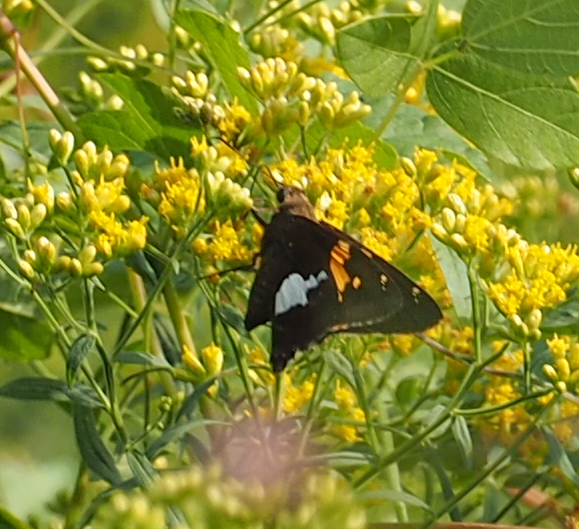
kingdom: Animalia
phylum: Arthropoda
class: Insecta
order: Lepidoptera
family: Hesperiidae
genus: Epargyreus
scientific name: Epargyreus clarus
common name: Silver-spotted skipper
